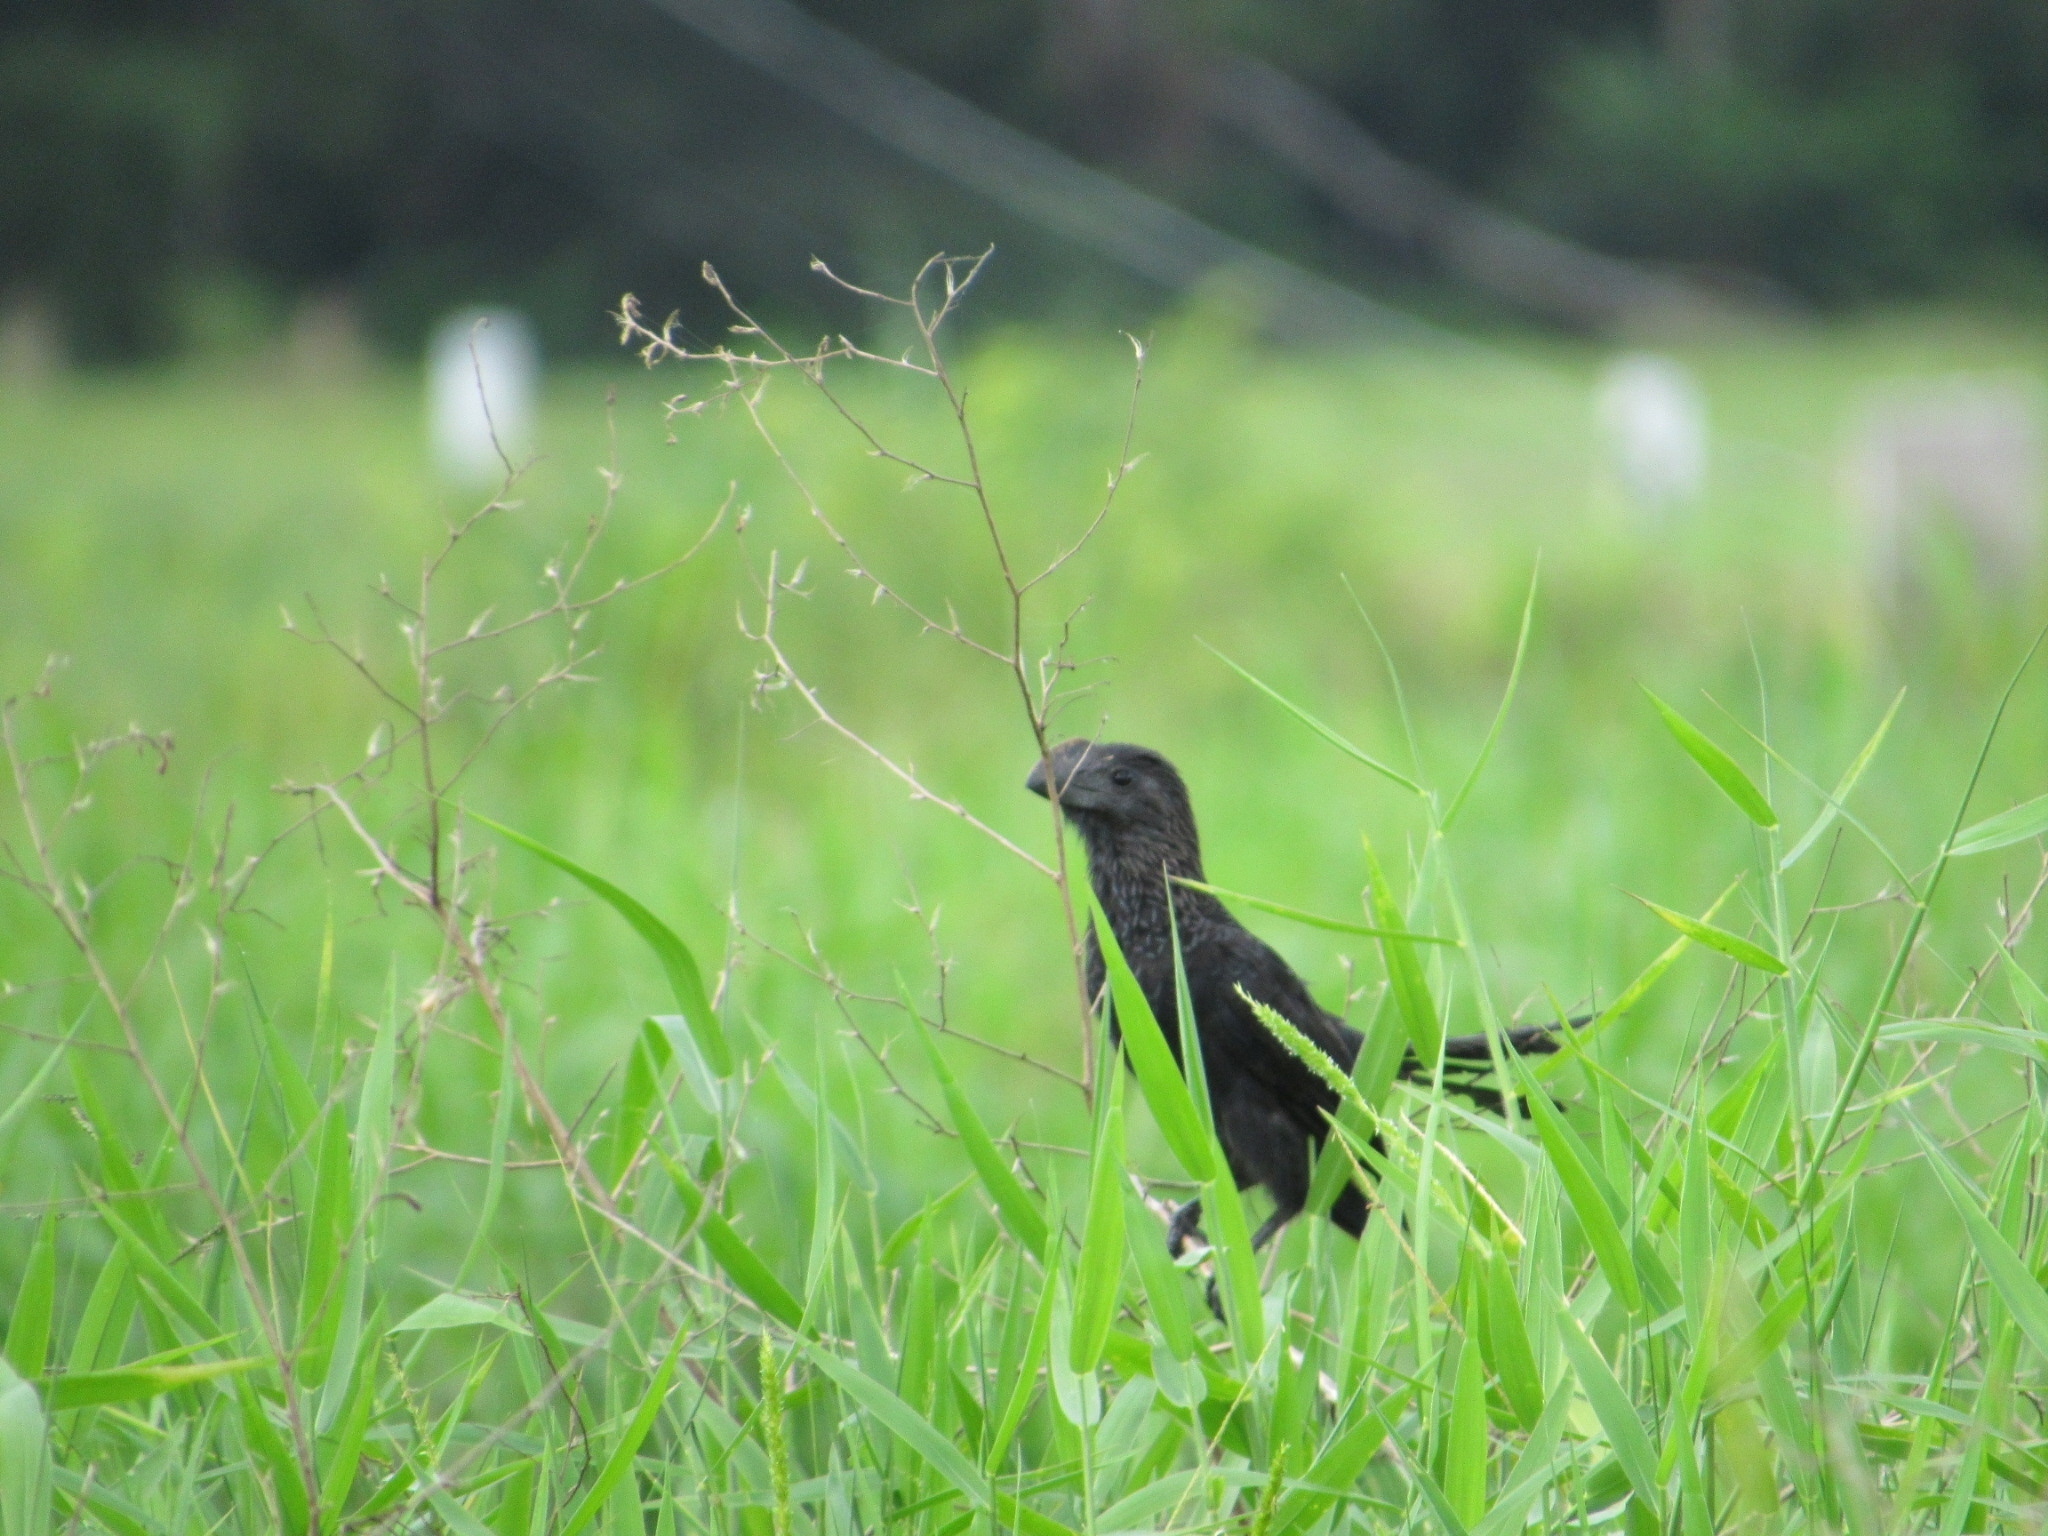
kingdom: Animalia
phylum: Chordata
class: Aves
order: Cuculiformes
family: Cuculidae
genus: Crotophaga
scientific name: Crotophaga ani
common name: Smooth-billed ani
